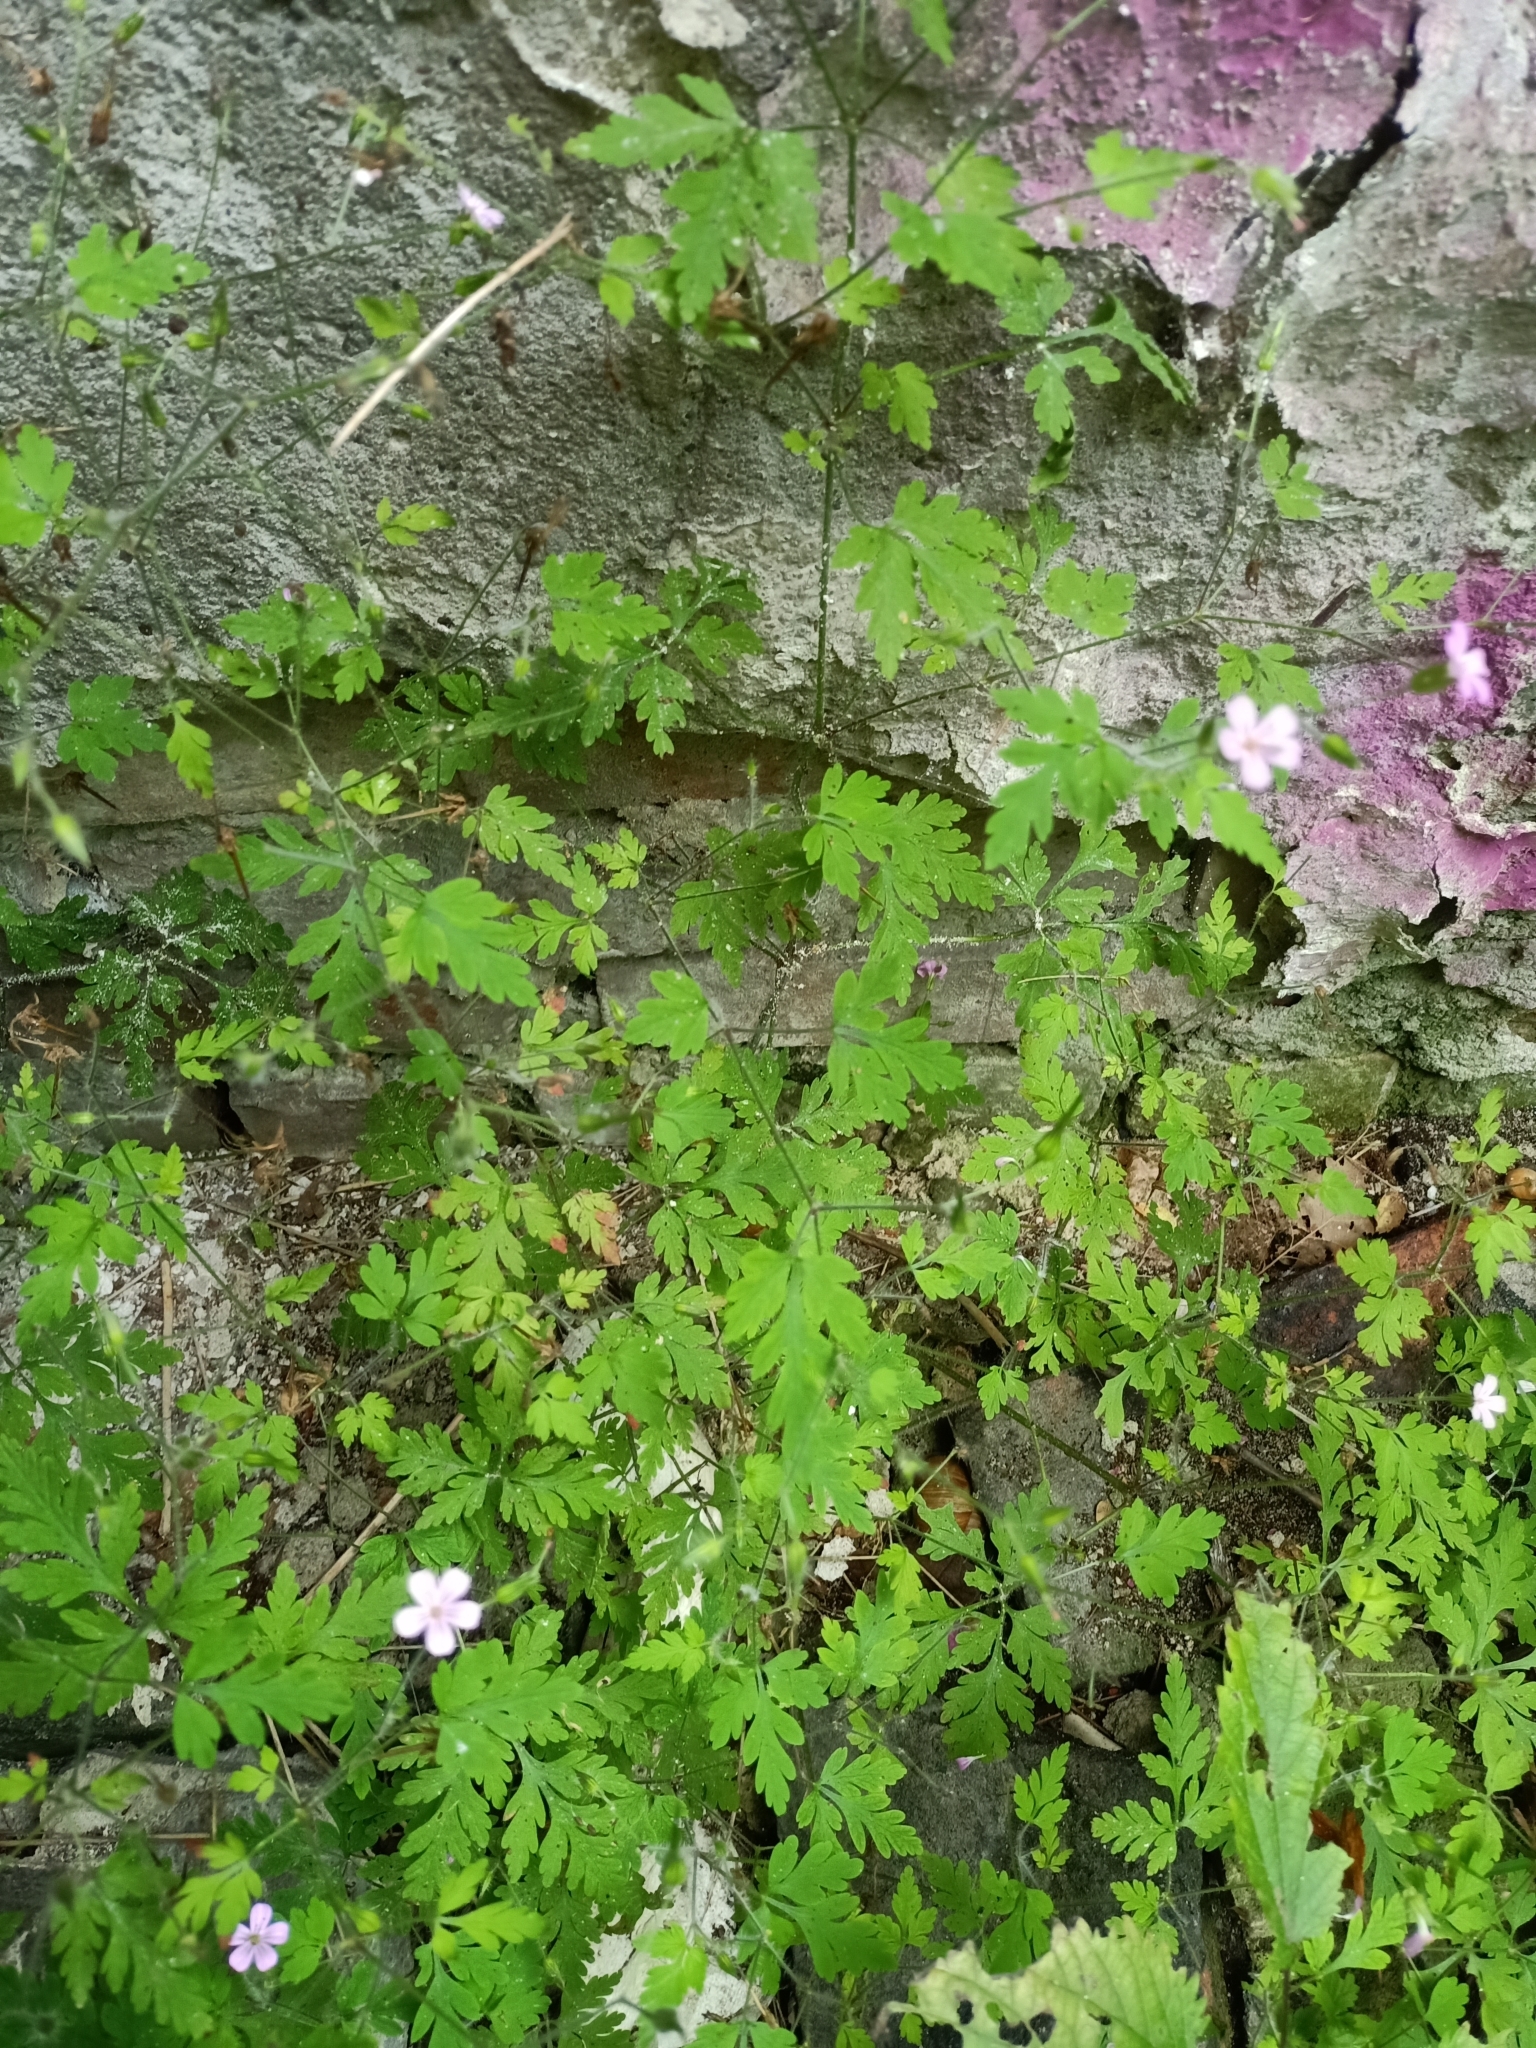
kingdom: Plantae
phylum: Tracheophyta
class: Magnoliopsida
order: Geraniales
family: Geraniaceae
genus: Geranium
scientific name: Geranium robertianum
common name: Herb-robert
